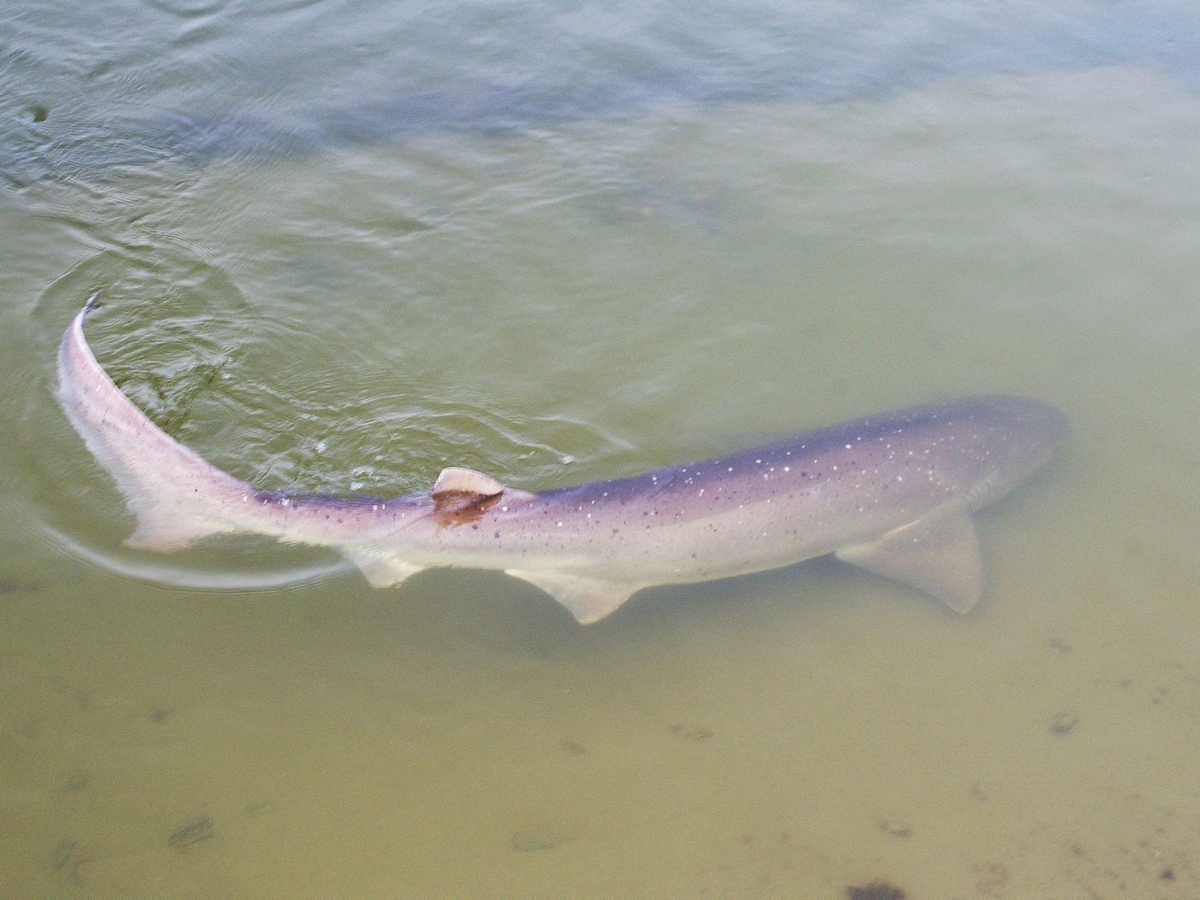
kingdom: Animalia
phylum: Chordata
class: Elasmobranchii
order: Hexanchiformes
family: Hexanchidae
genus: Notorynchus
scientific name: Notorynchus cepedianus
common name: Broadnose sevengill shark
